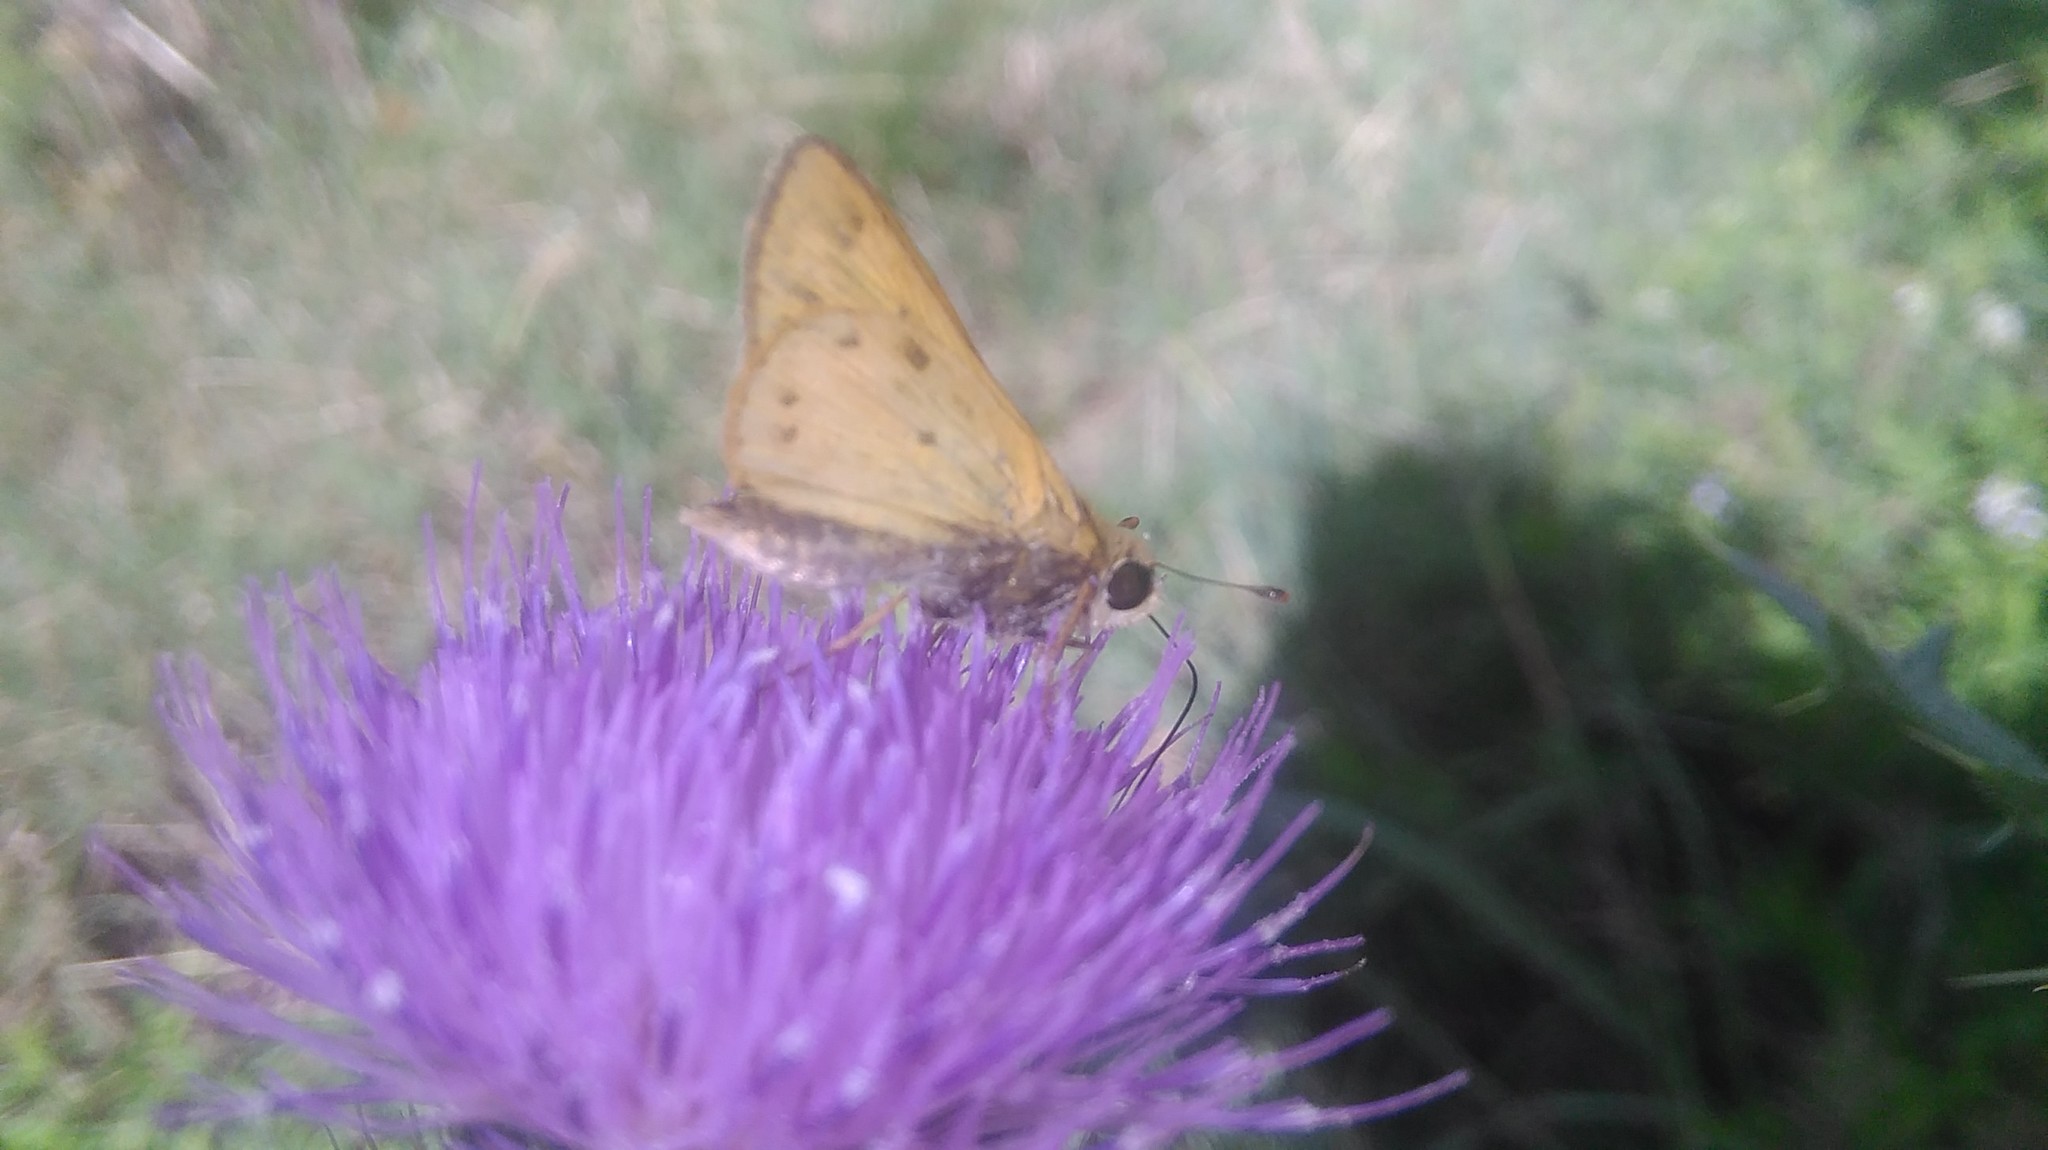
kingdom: Animalia
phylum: Arthropoda
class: Insecta
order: Lepidoptera
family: Hesperiidae
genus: Hylephila
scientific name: Hylephila phyleus
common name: Fiery skipper
